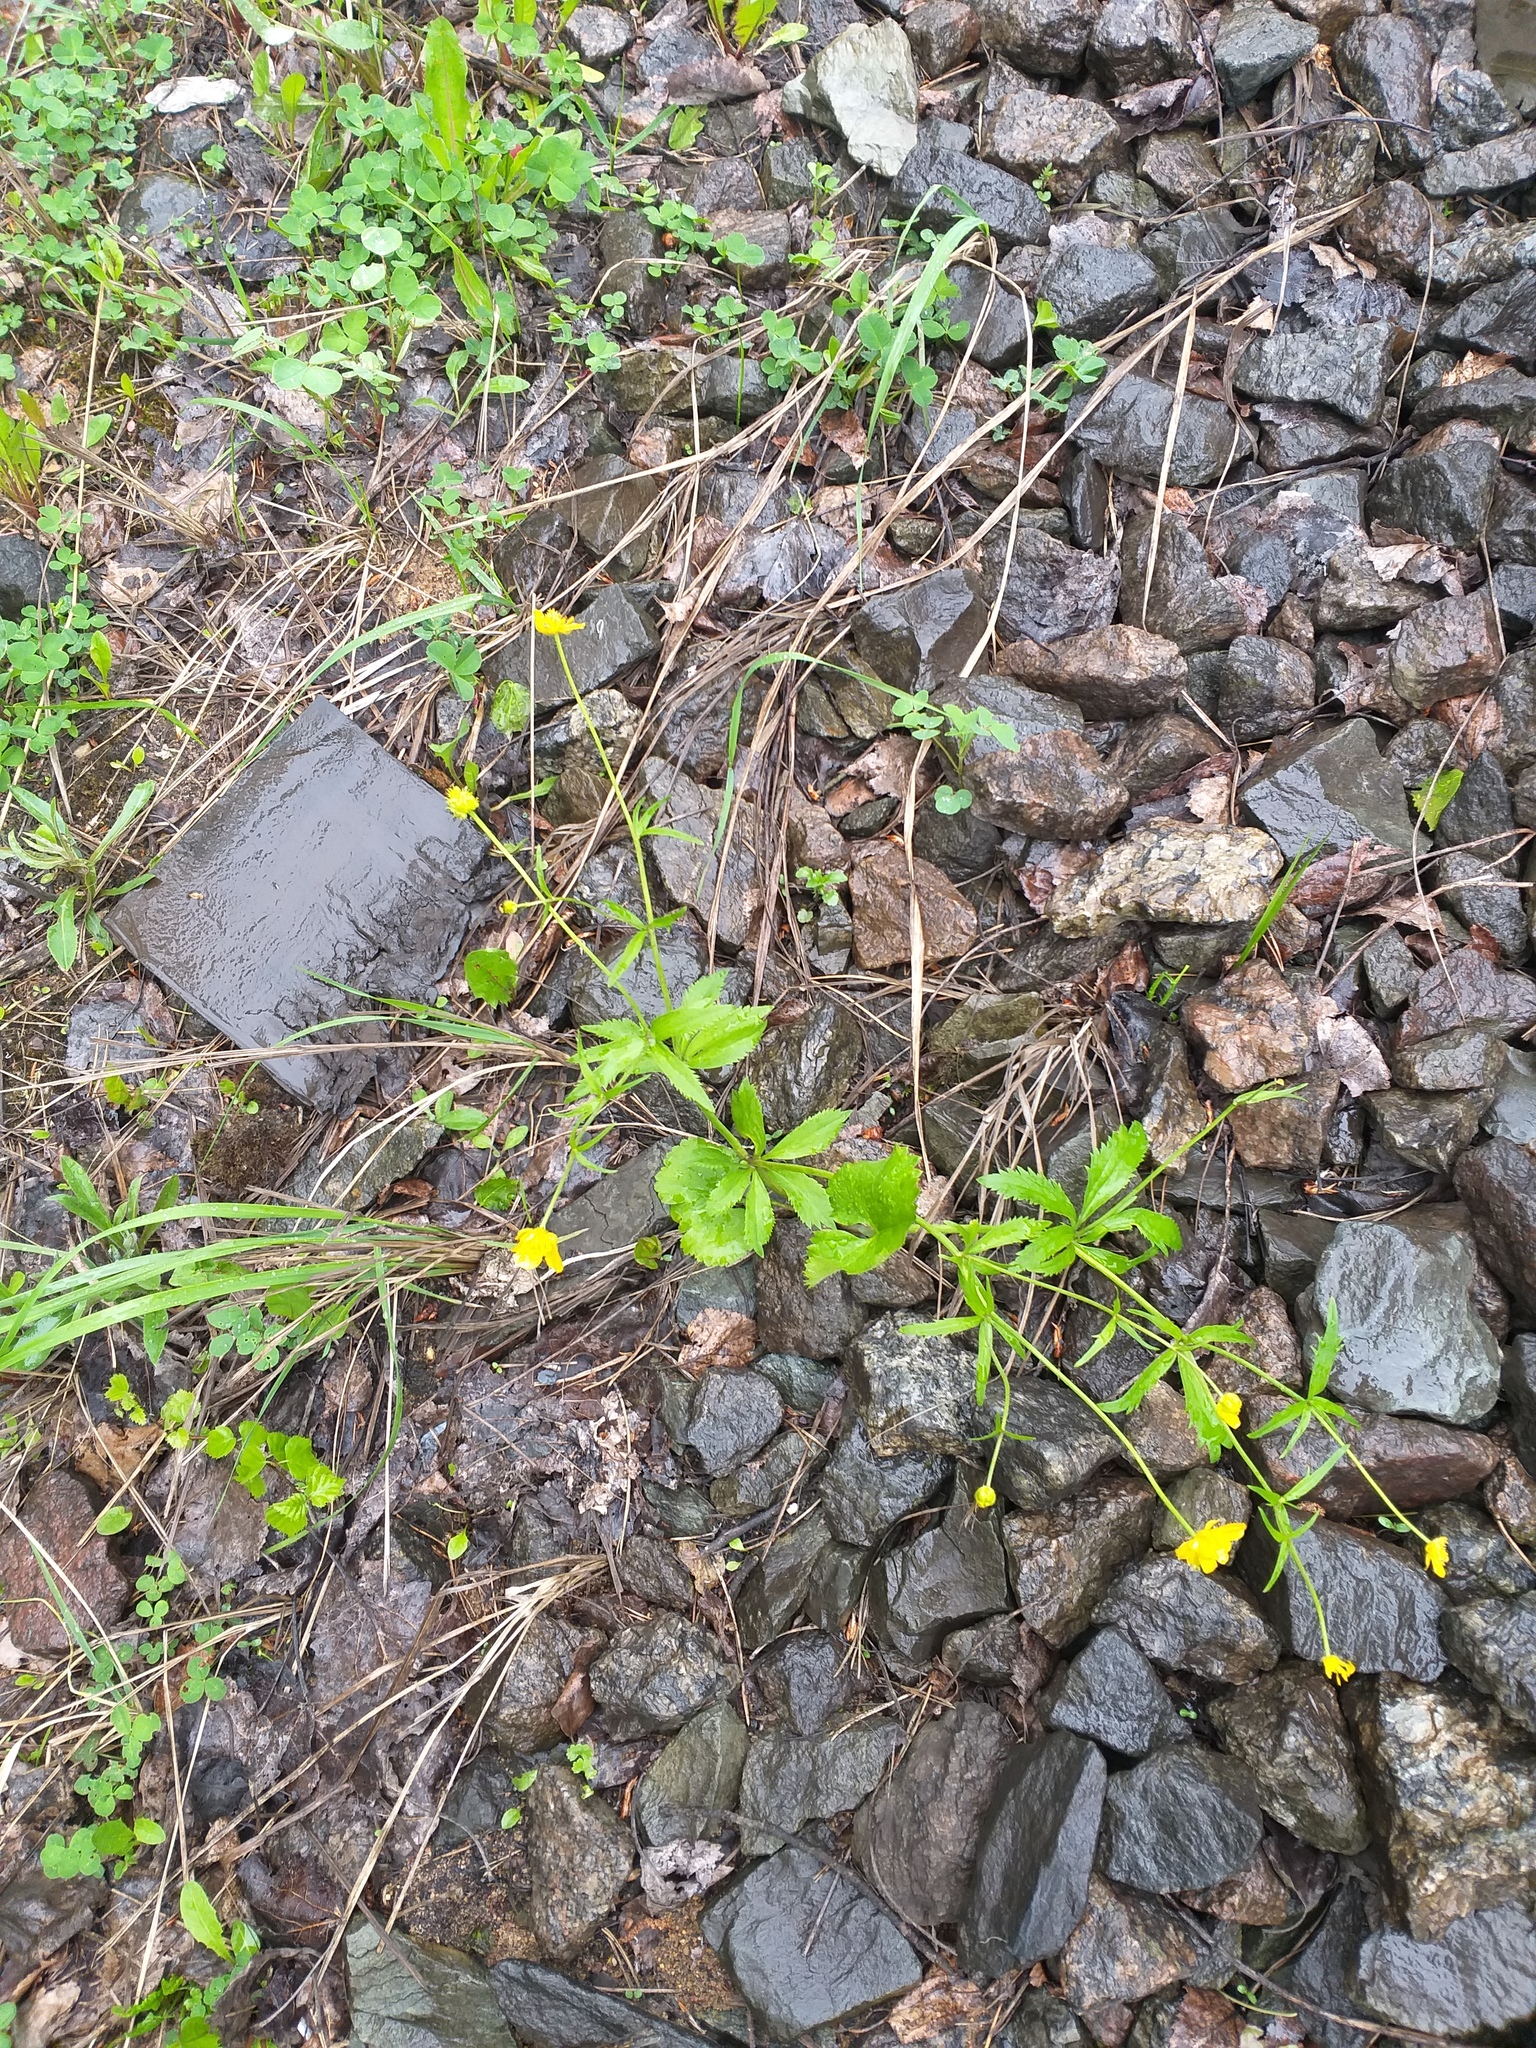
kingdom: Plantae
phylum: Tracheophyta
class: Magnoliopsida
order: Ranunculales
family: Ranunculaceae
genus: Ranunculus
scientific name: Ranunculus cassubicus
